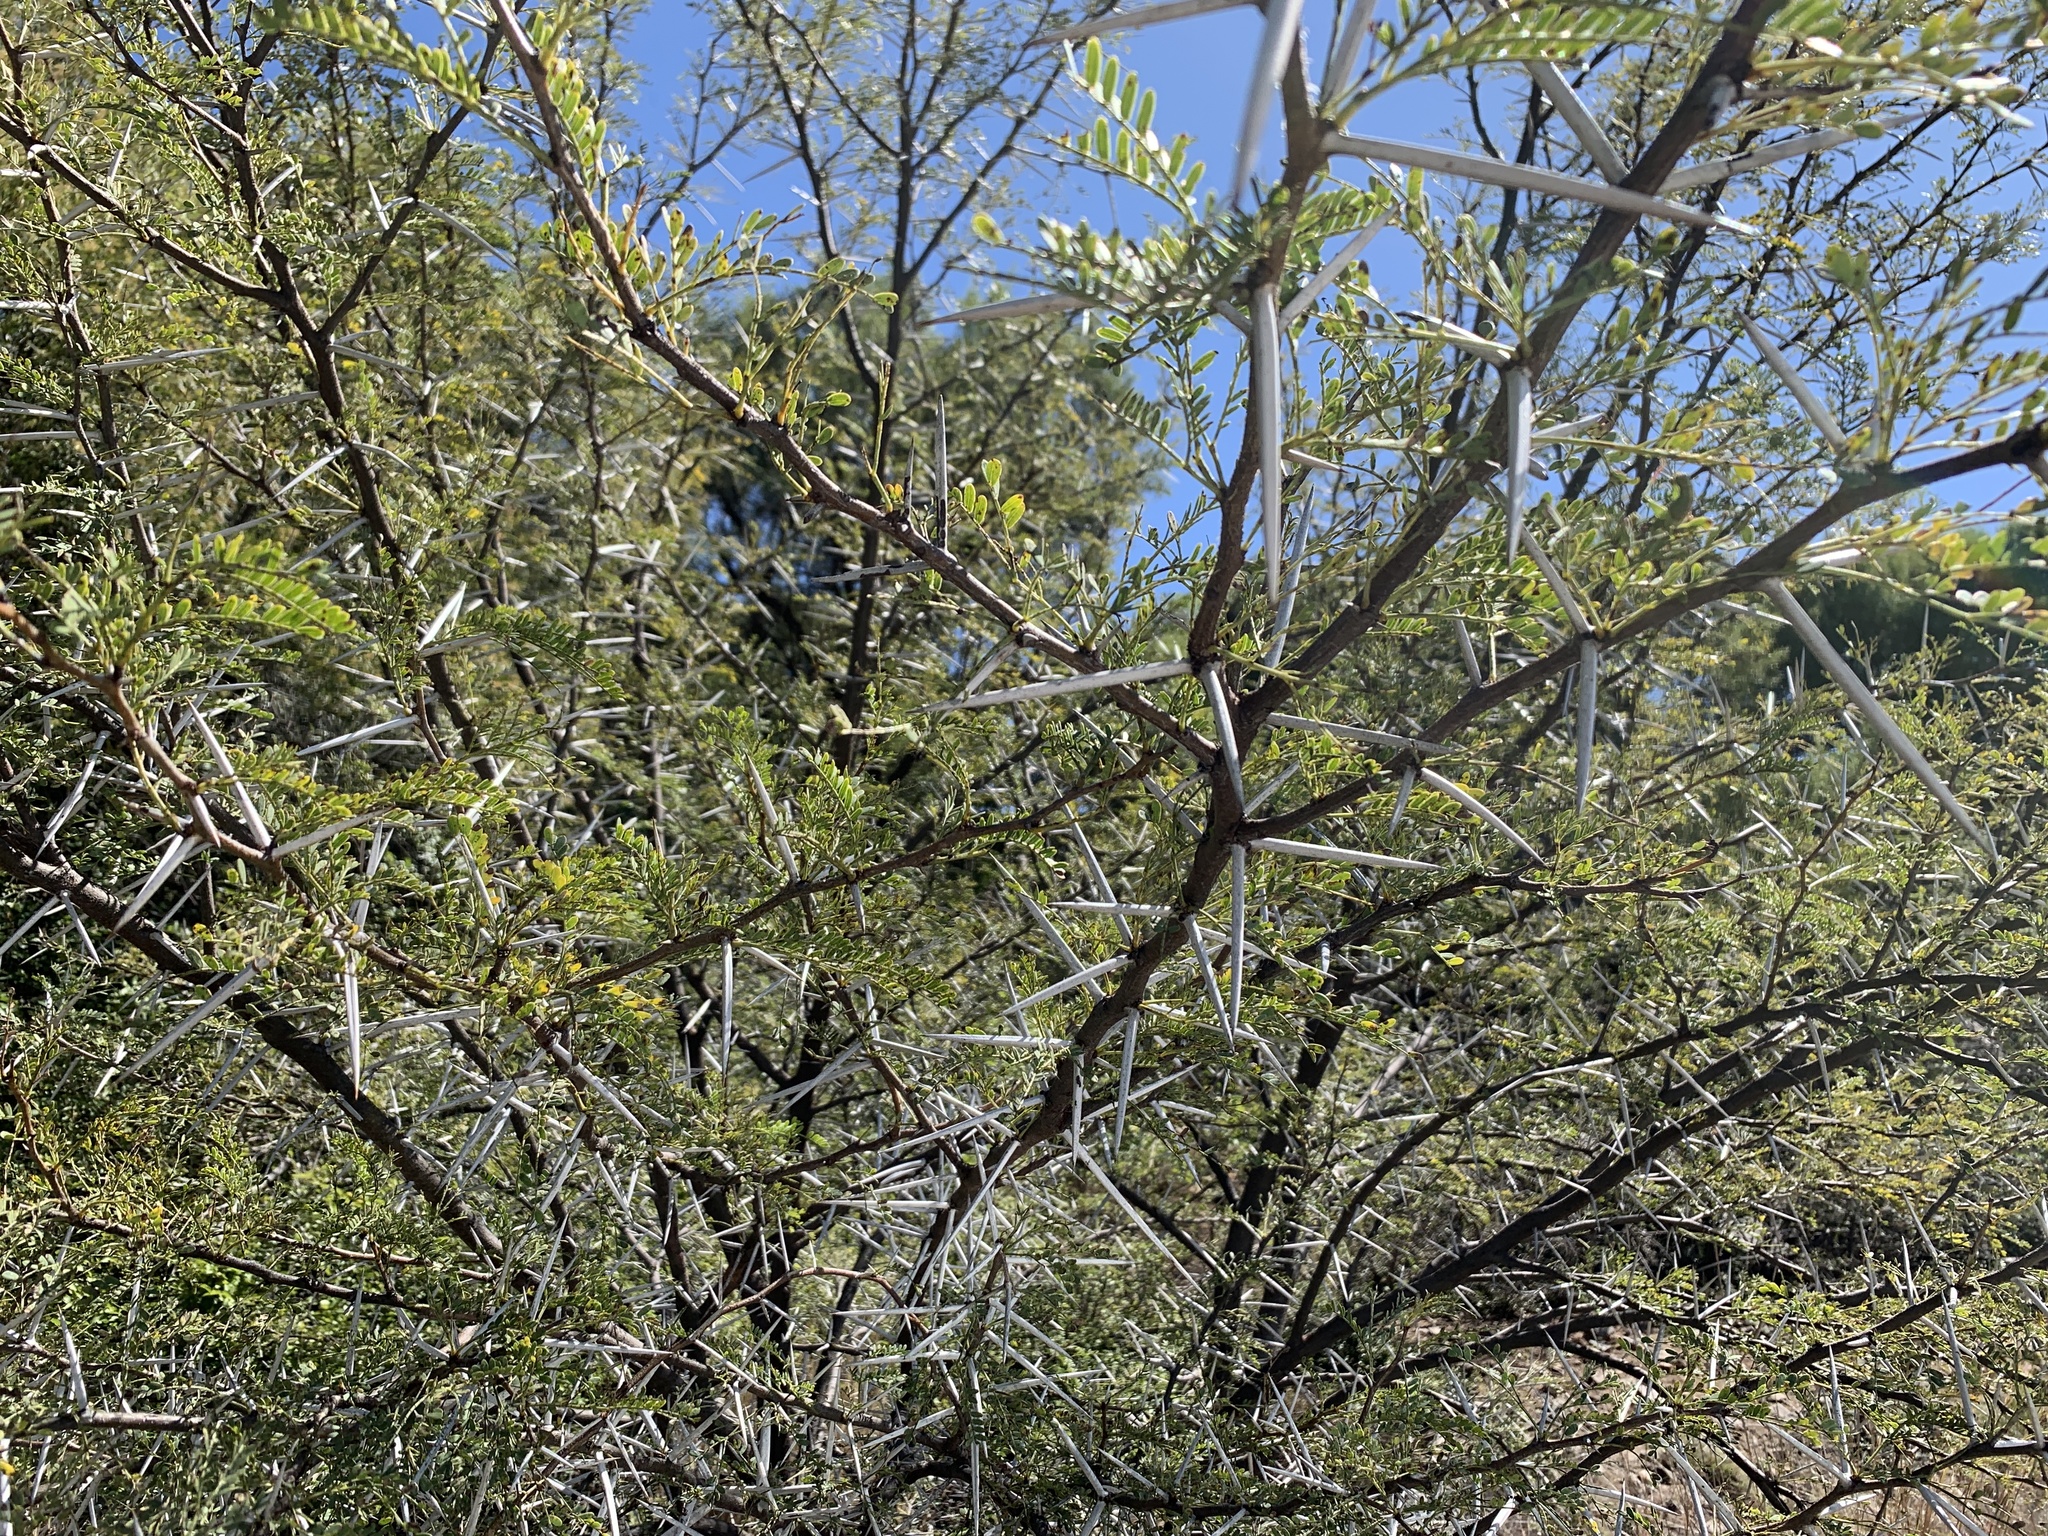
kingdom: Plantae
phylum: Tracheophyta
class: Magnoliopsida
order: Fabales
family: Fabaceae
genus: Vachellia
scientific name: Vachellia karroo
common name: Sweet thorn
